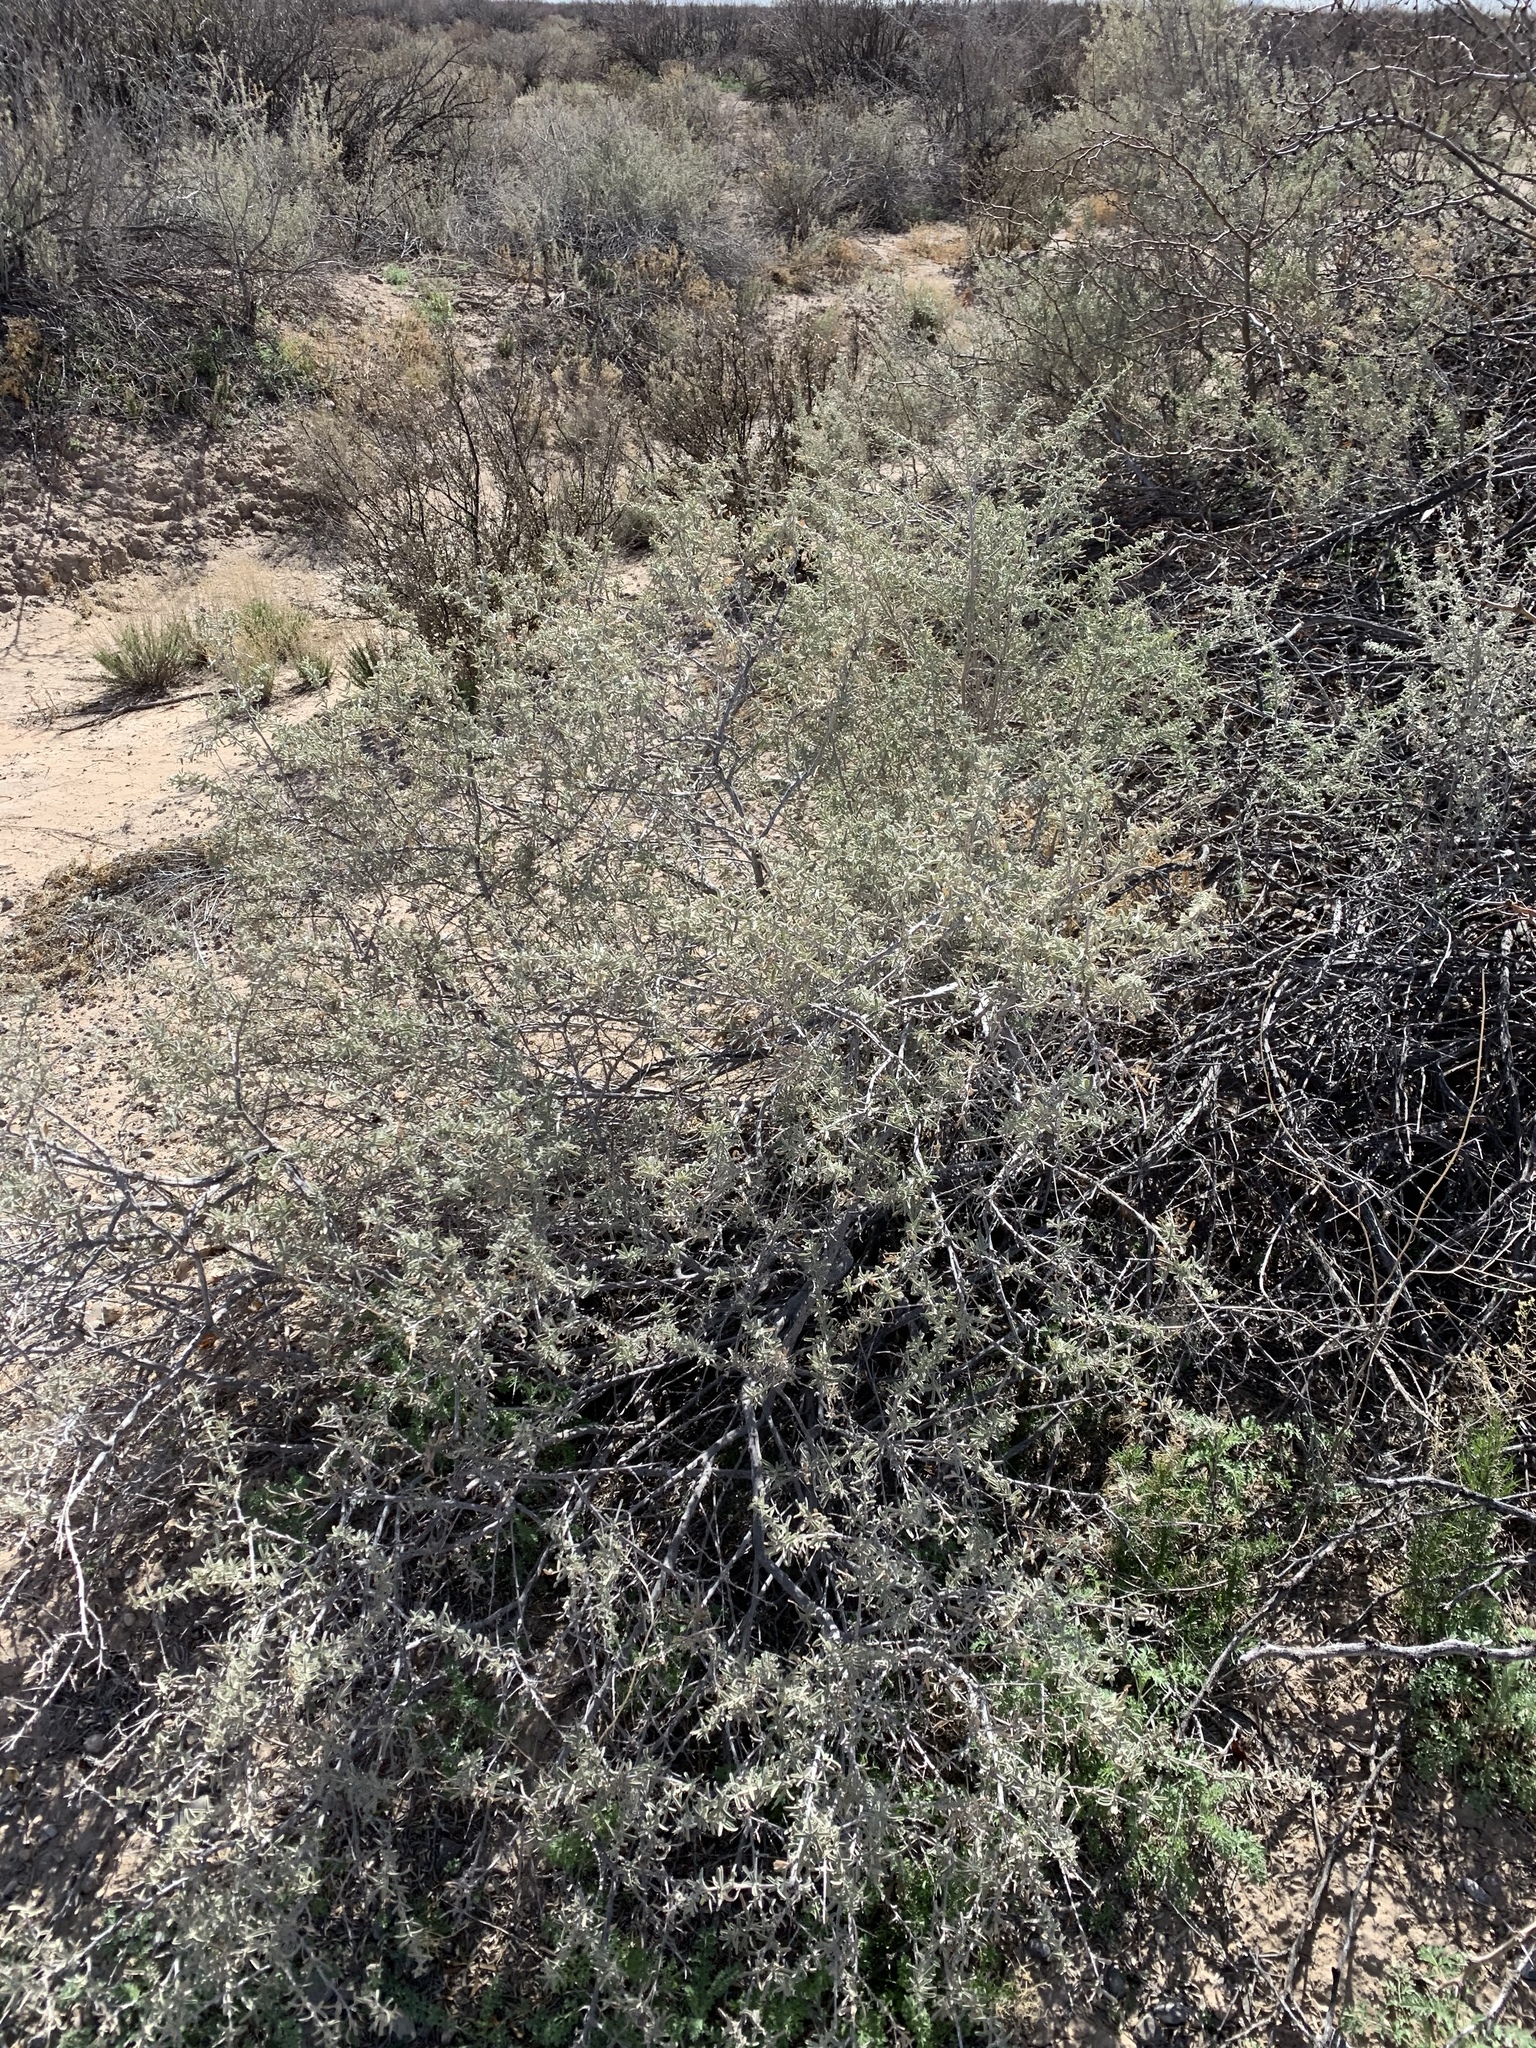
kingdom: Plantae
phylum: Tracheophyta
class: Magnoliopsida
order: Caryophyllales
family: Amaranthaceae
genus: Atriplex
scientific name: Atriplex canescens
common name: Four-wing saltbush
